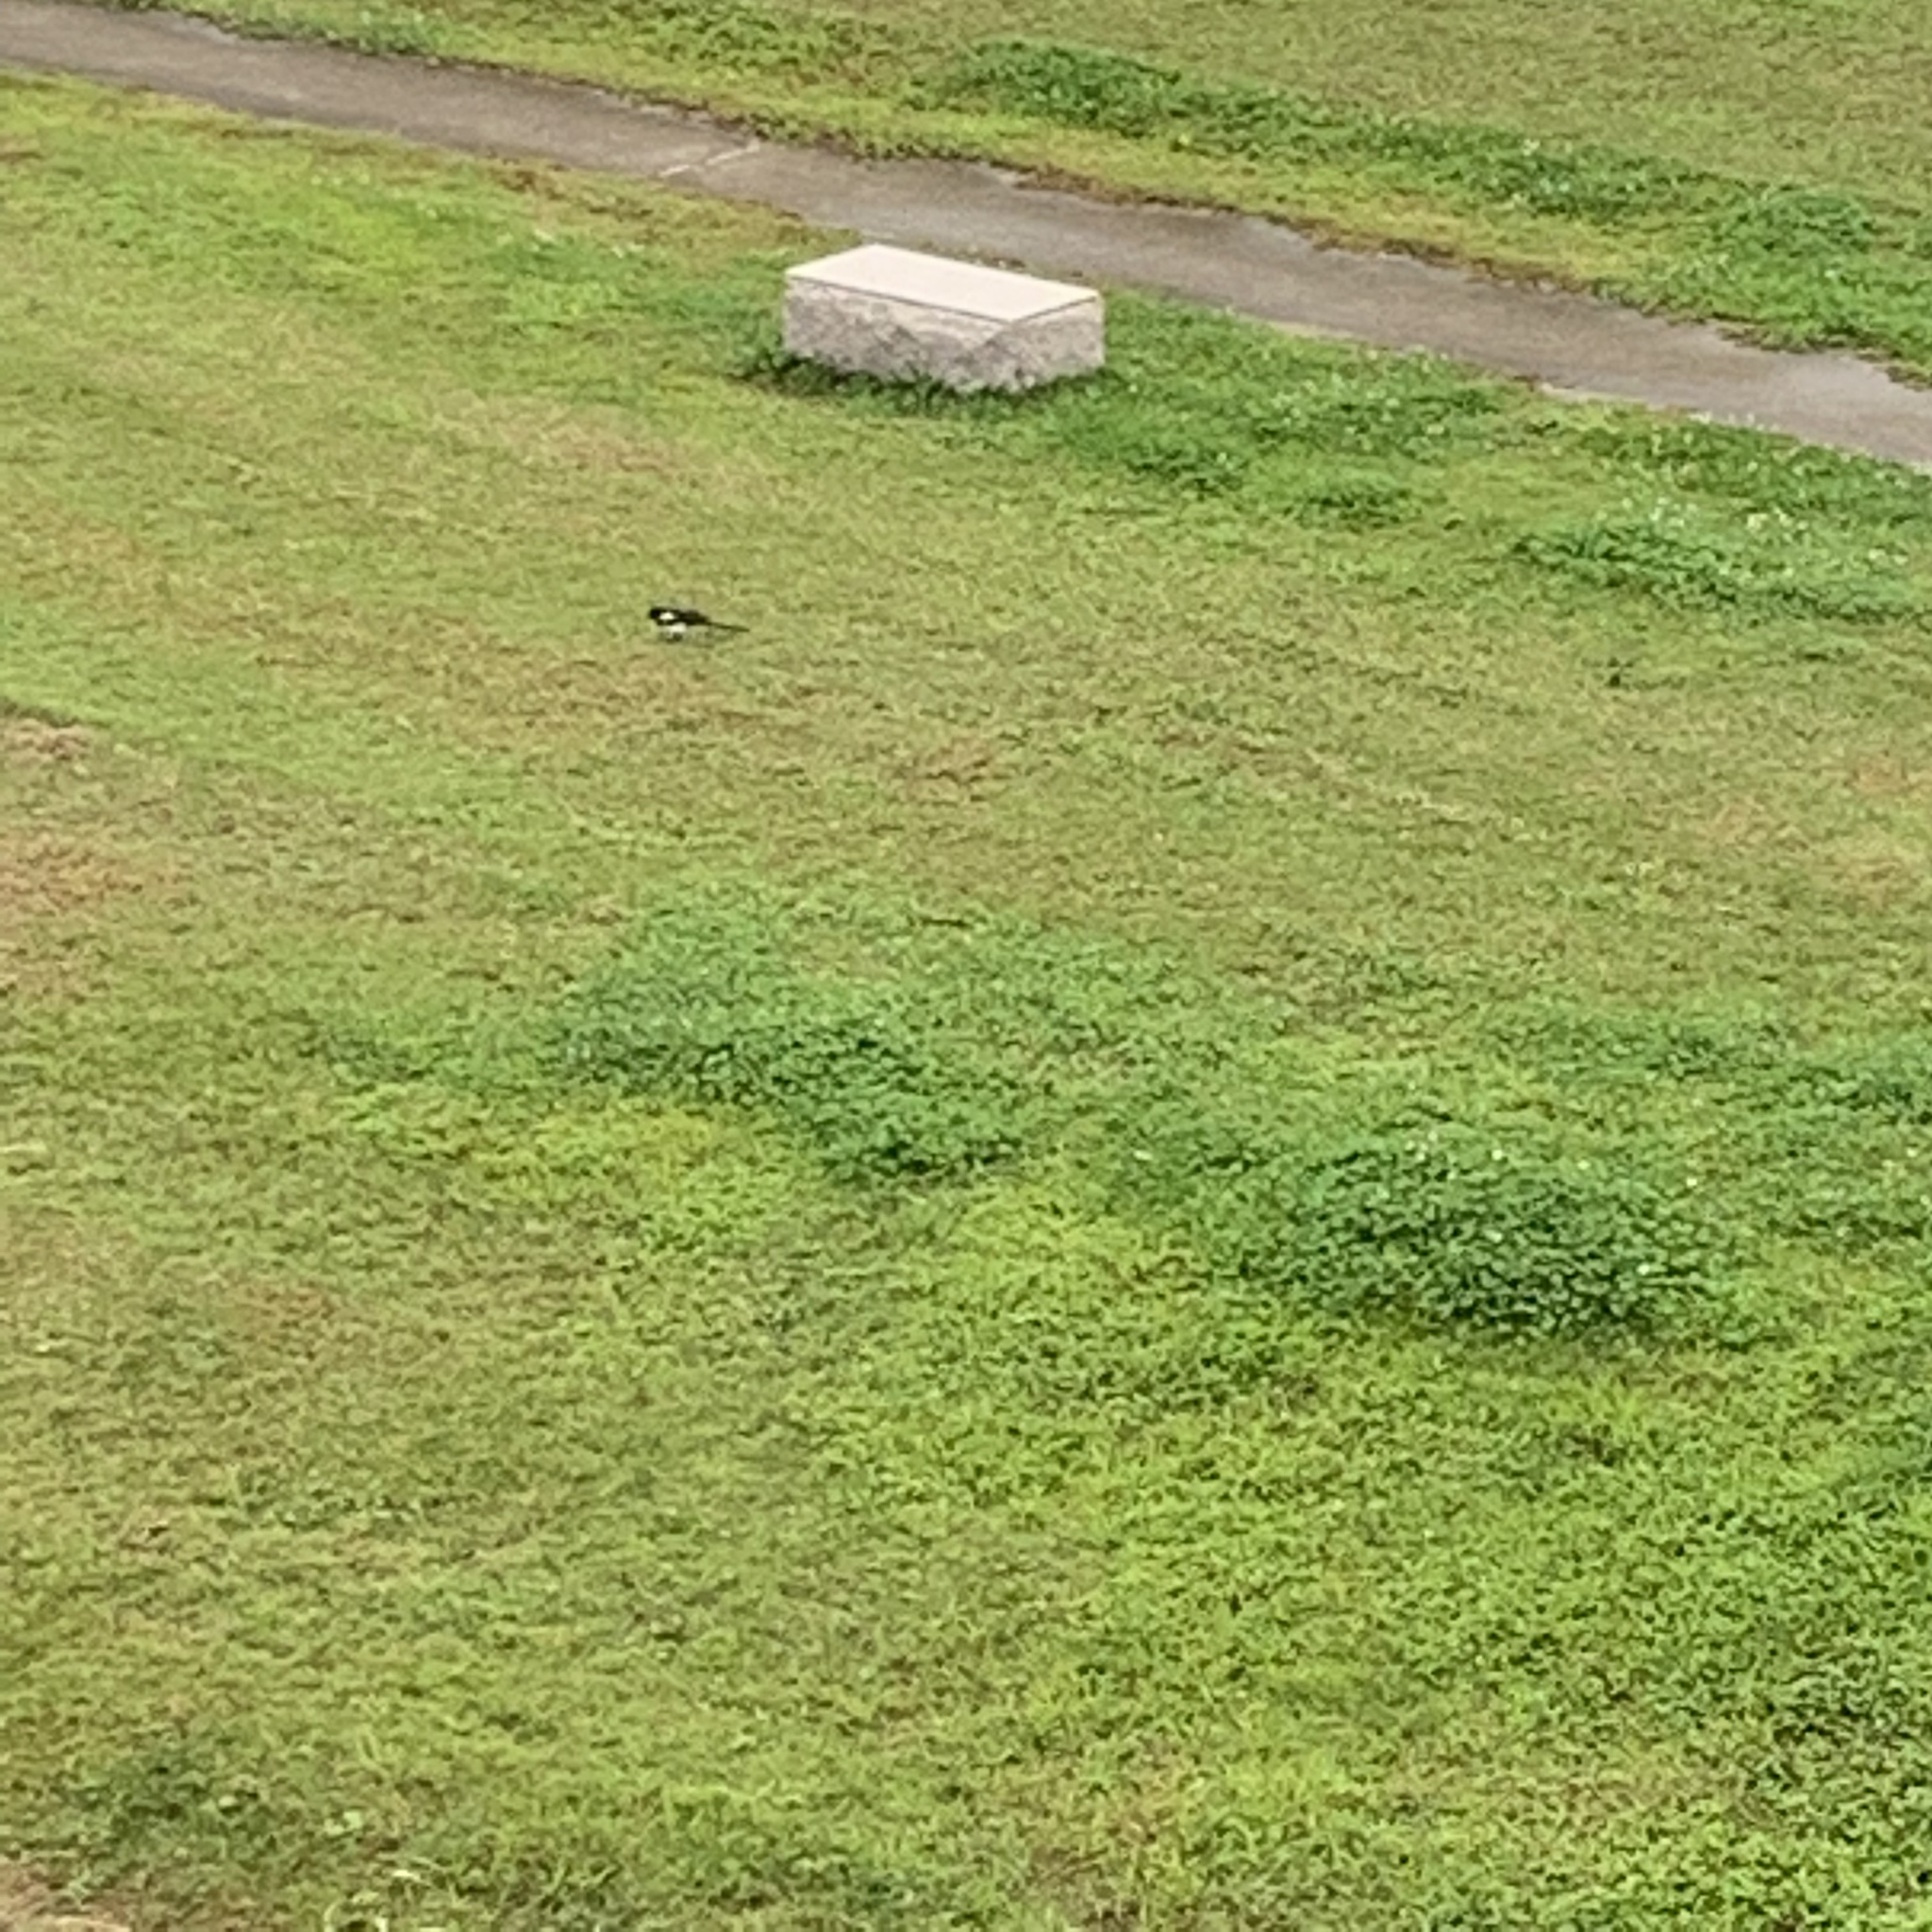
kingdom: Animalia
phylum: Chordata
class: Aves
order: Passeriformes
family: Corvidae
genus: Pica
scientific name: Pica serica
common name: Oriental magpie
